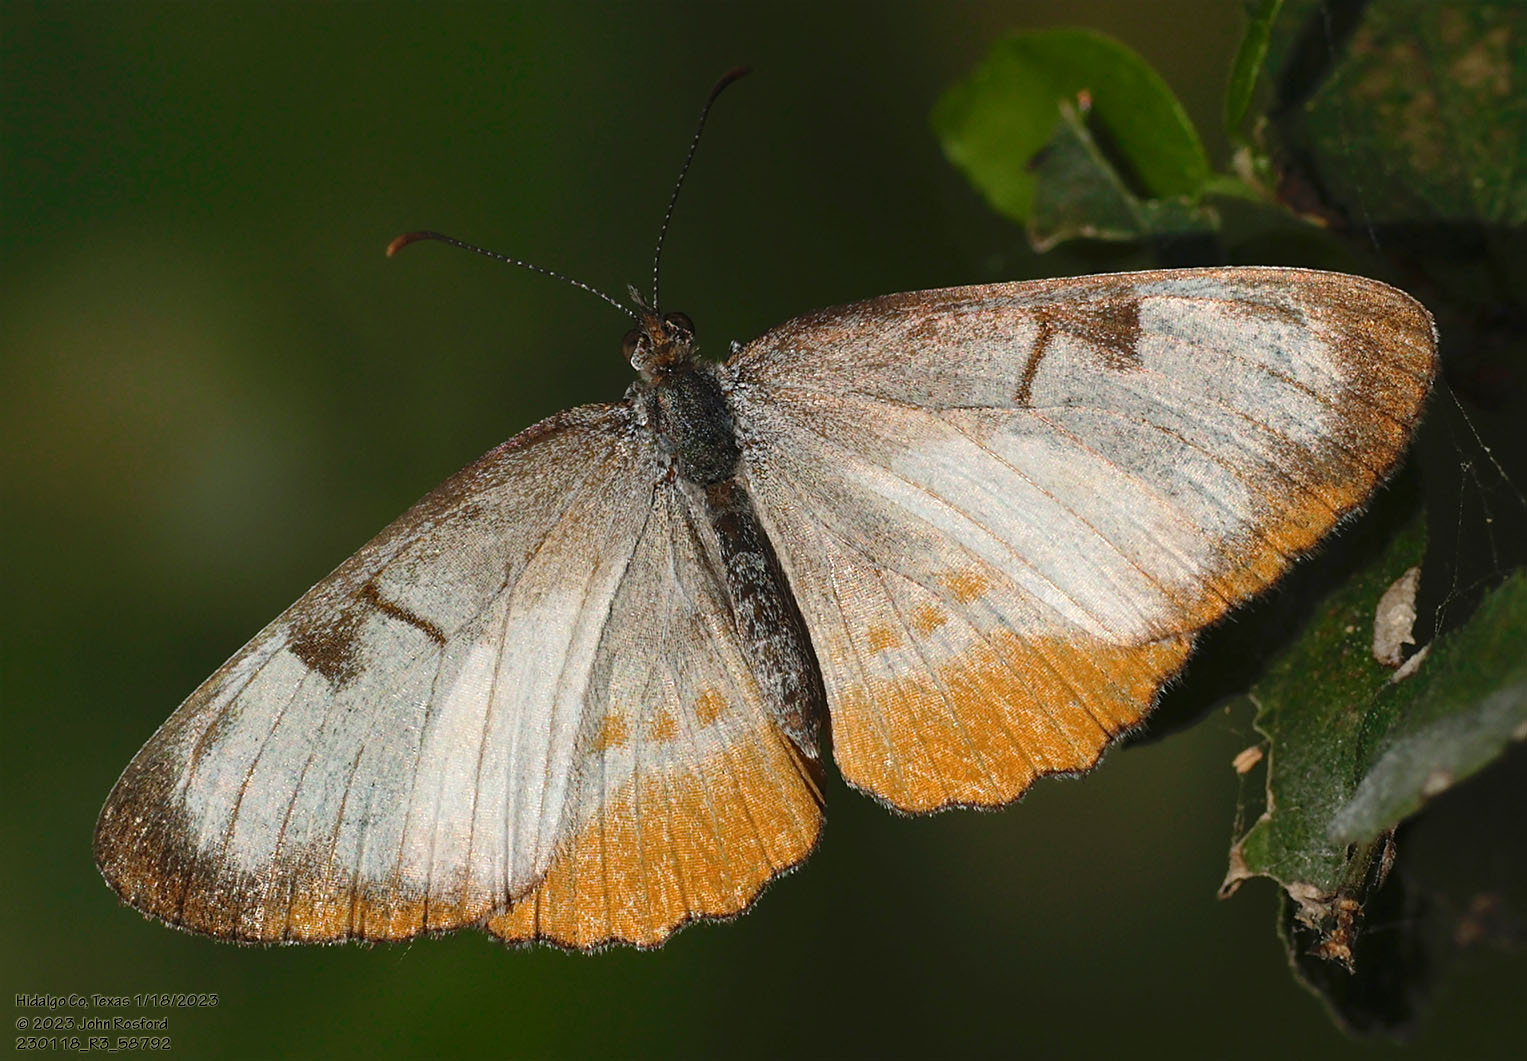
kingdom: Animalia
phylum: Arthropoda
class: Insecta
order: Lepidoptera
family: Nymphalidae
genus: Mestra
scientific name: Mestra amymone
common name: Common mestra
